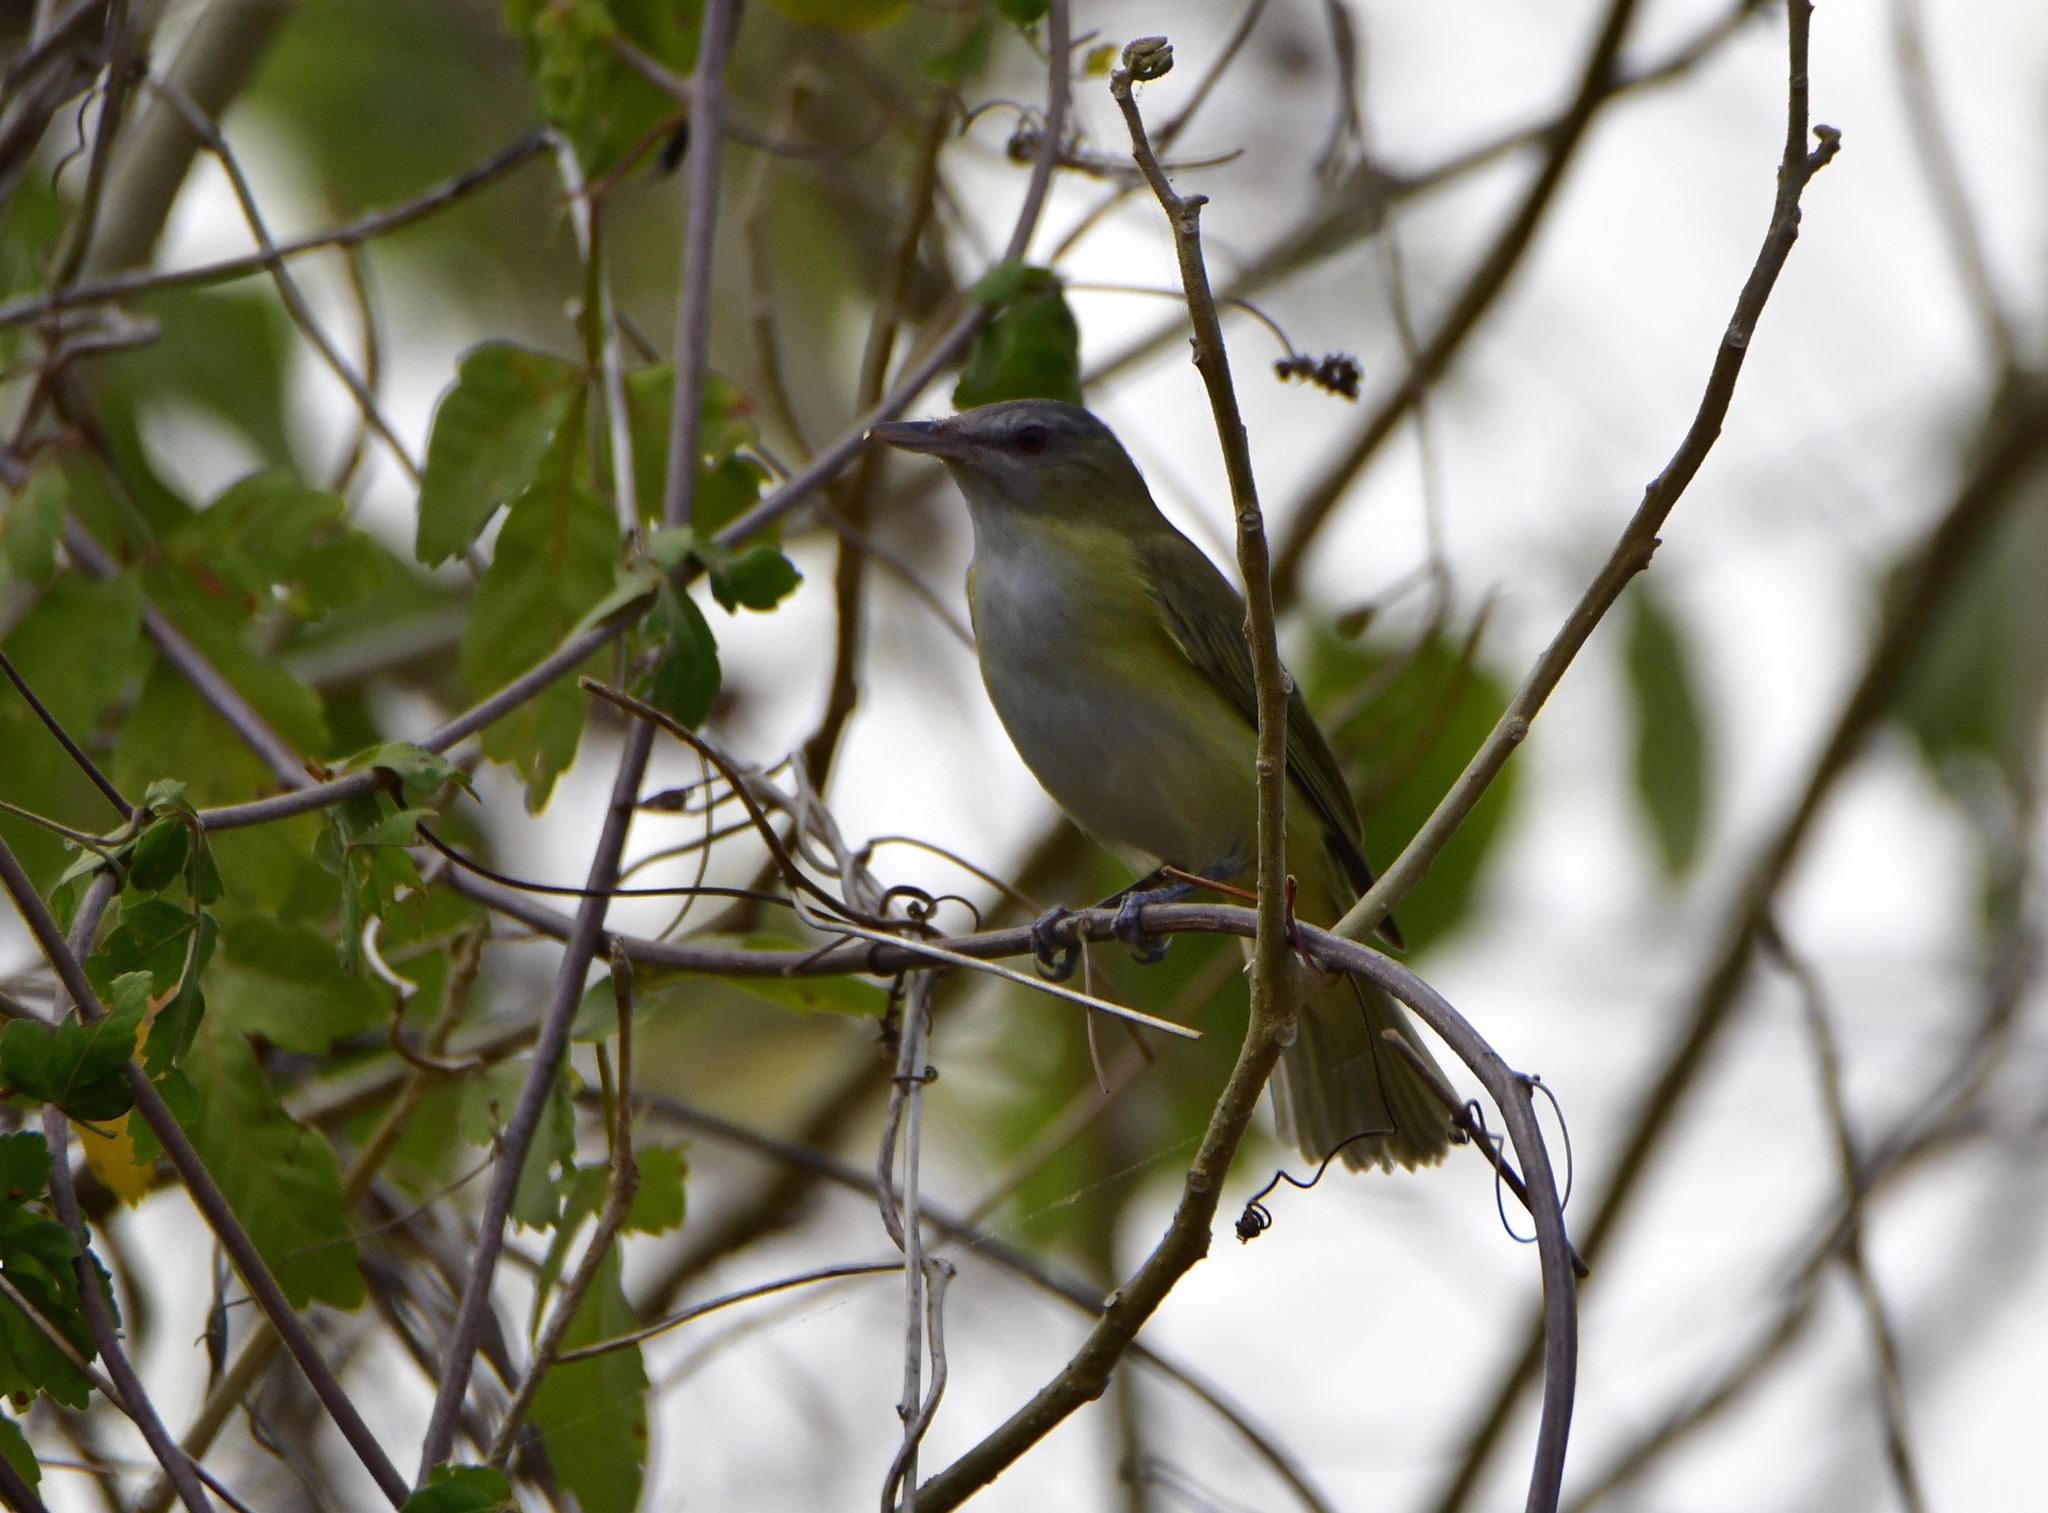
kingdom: Animalia
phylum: Chordata
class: Aves
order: Passeriformes
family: Vireonidae
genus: Vireo
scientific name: Vireo flavoviridis
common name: Yellow-green vireo
